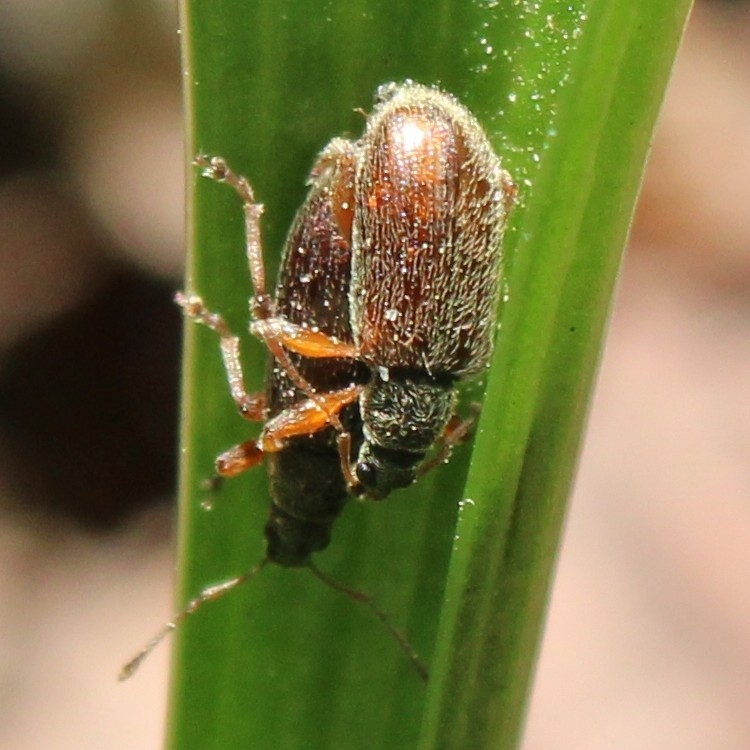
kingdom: Animalia
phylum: Arthropoda
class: Insecta
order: Coleoptera
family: Curculionidae
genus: Phyllobius
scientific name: Phyllobius oblongus
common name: Brown leaf weevil
